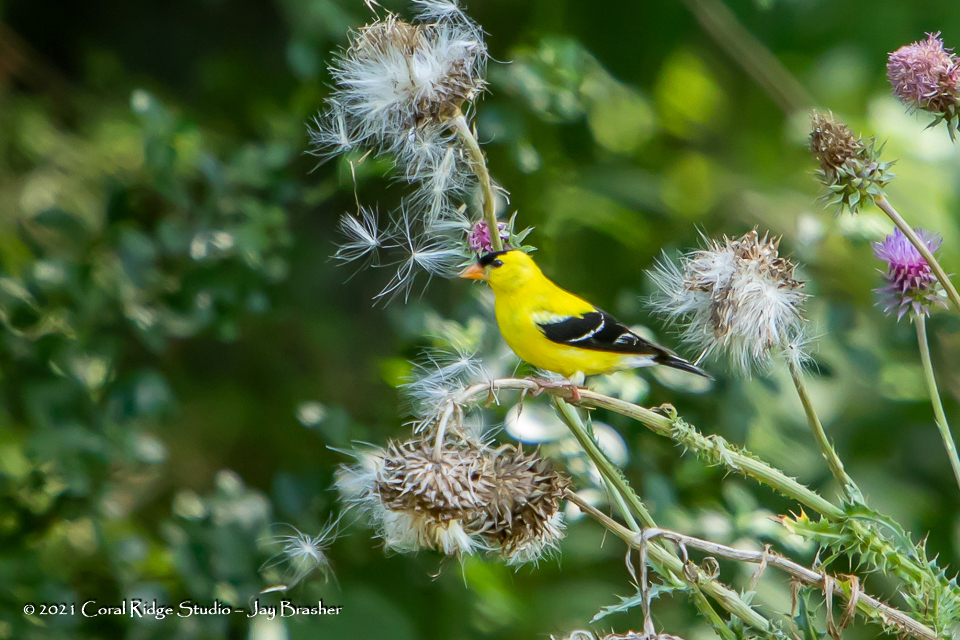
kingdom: Animalia
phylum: Chordata
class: Aves
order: Passeriformes
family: Fringillidae
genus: Spinus
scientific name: Spinus tristis
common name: American goldfinch
